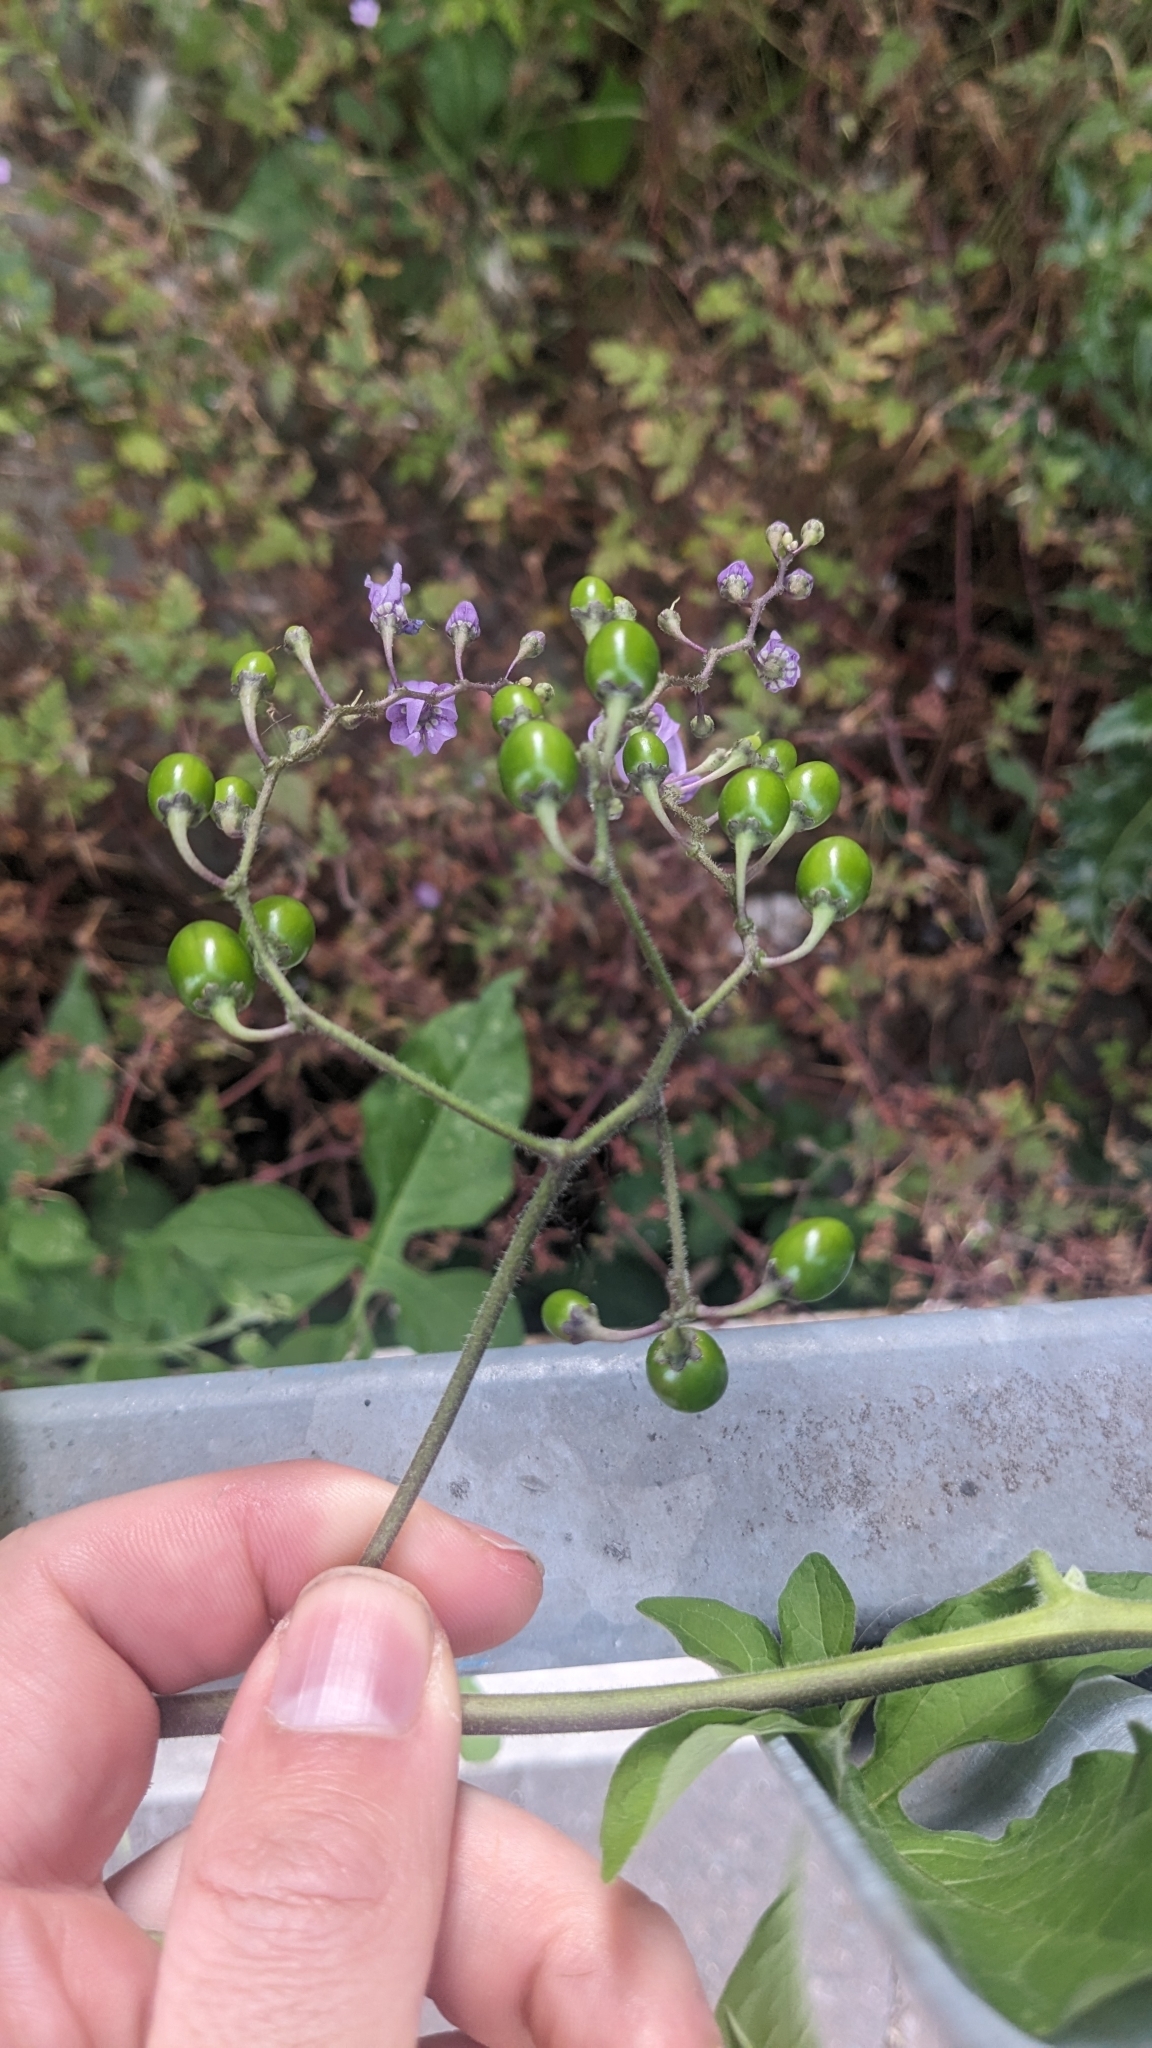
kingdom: Plantae
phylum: Tracheophyta
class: Magnoliopsida
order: Solanales
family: Solanaceae
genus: Solanum
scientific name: Solanum dulcamara
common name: Climbing nightshade
